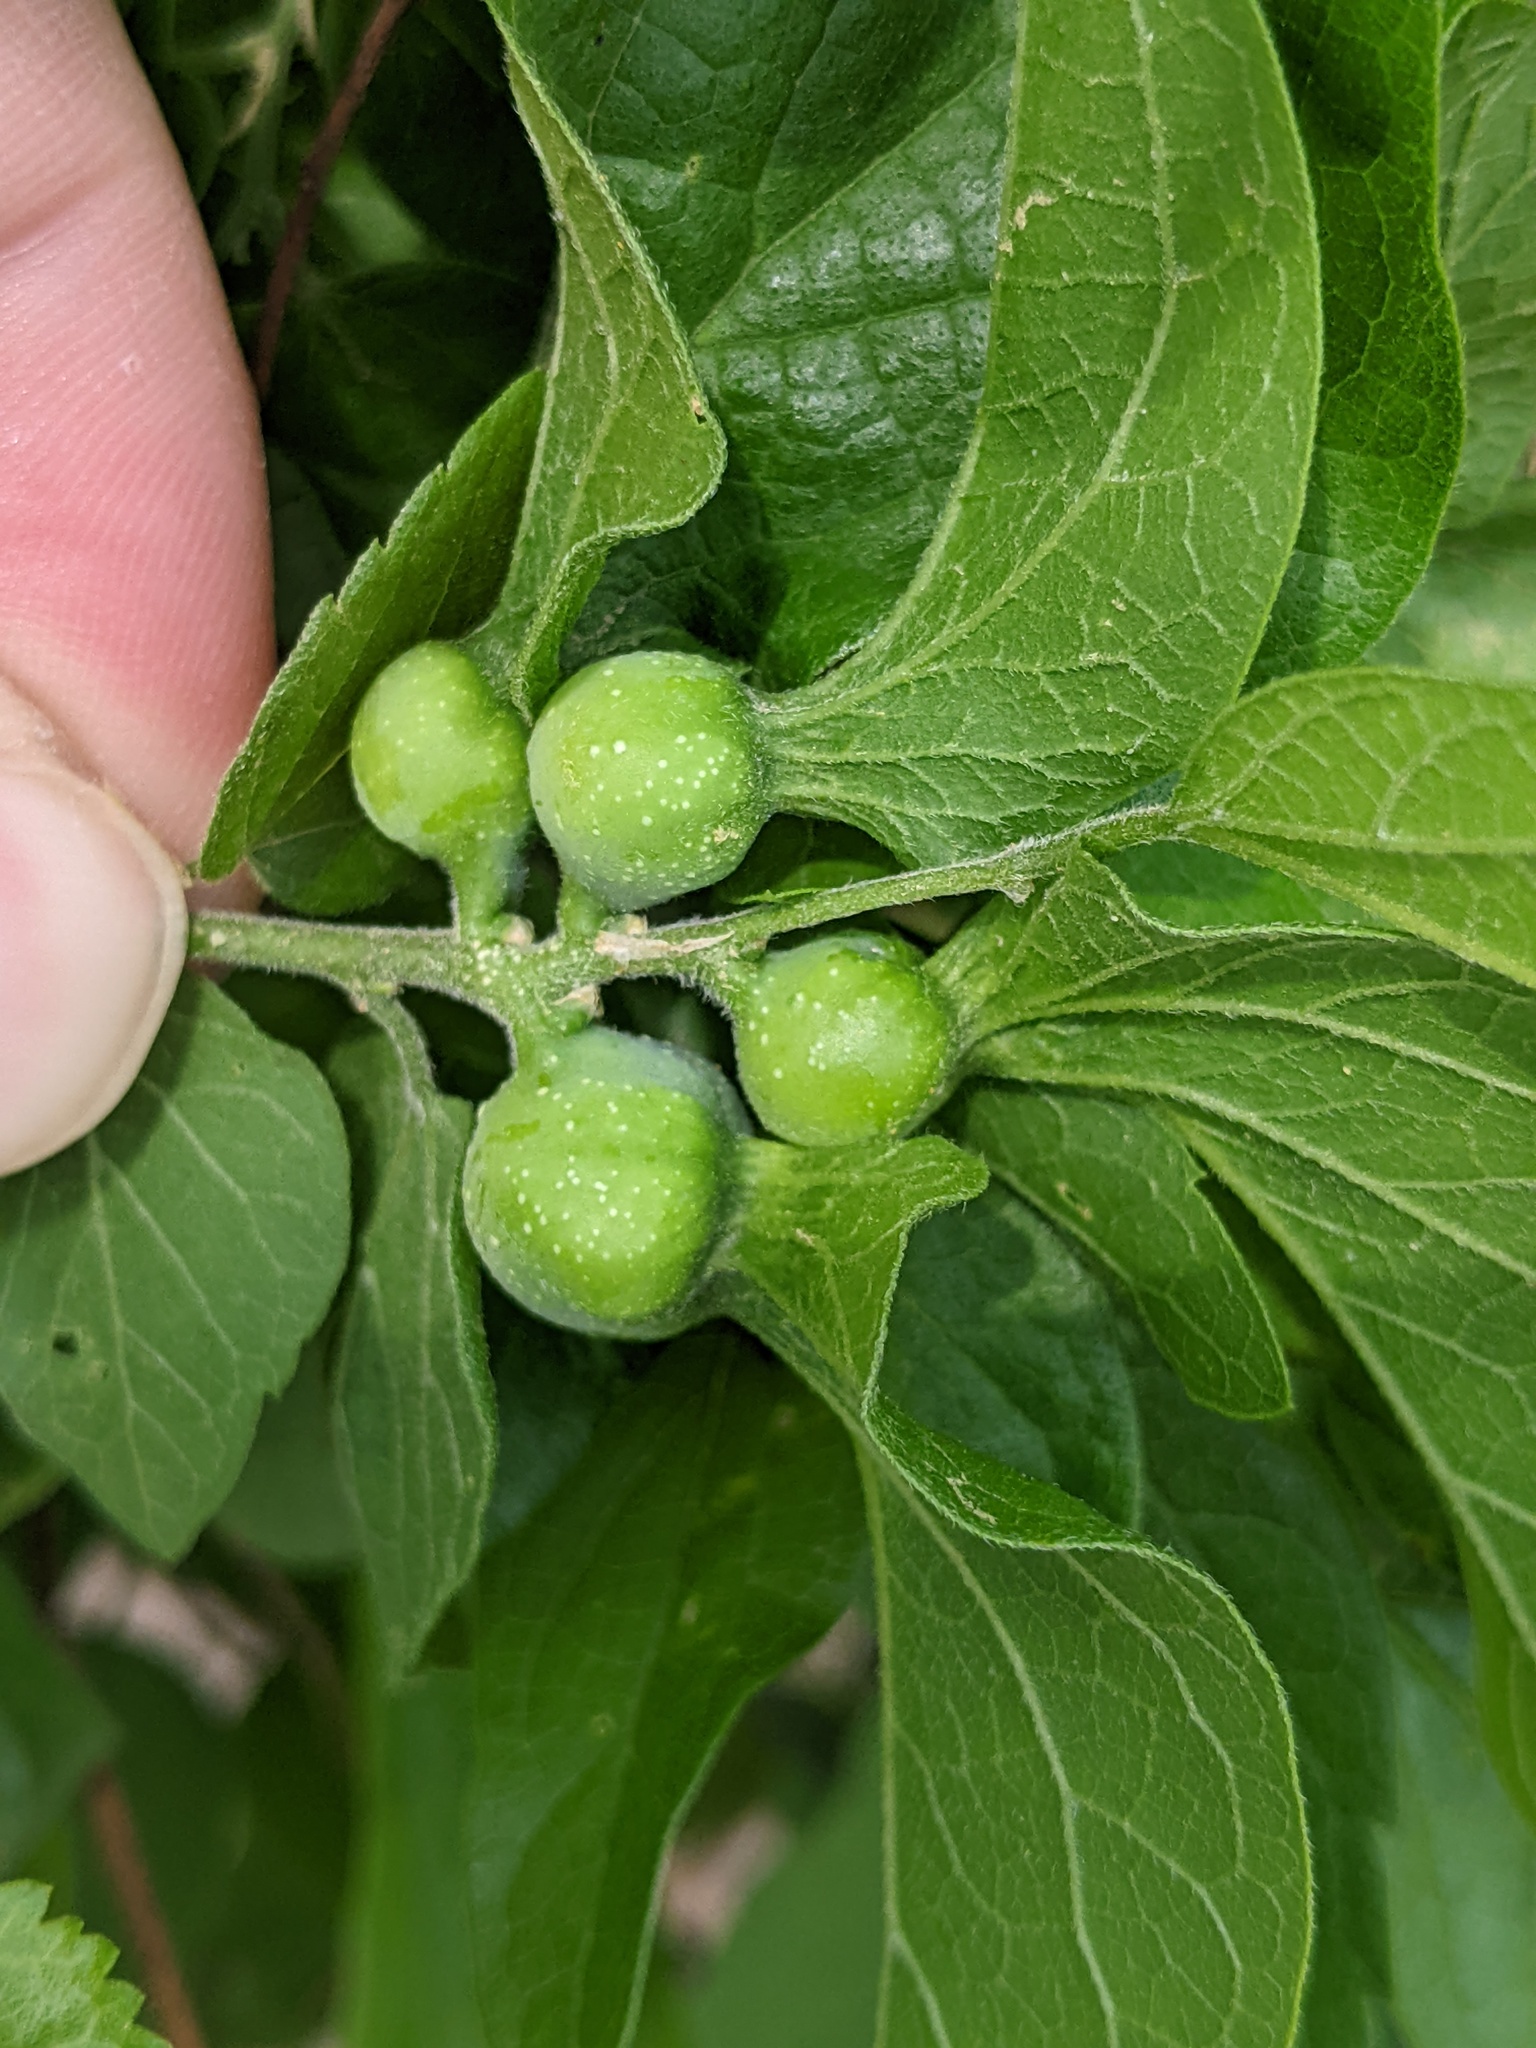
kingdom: Animalia
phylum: Arthropoda
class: Insecta
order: Hemiptera
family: Aphalaridae
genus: Pachypsylla
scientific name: Pachypsylla venusta
